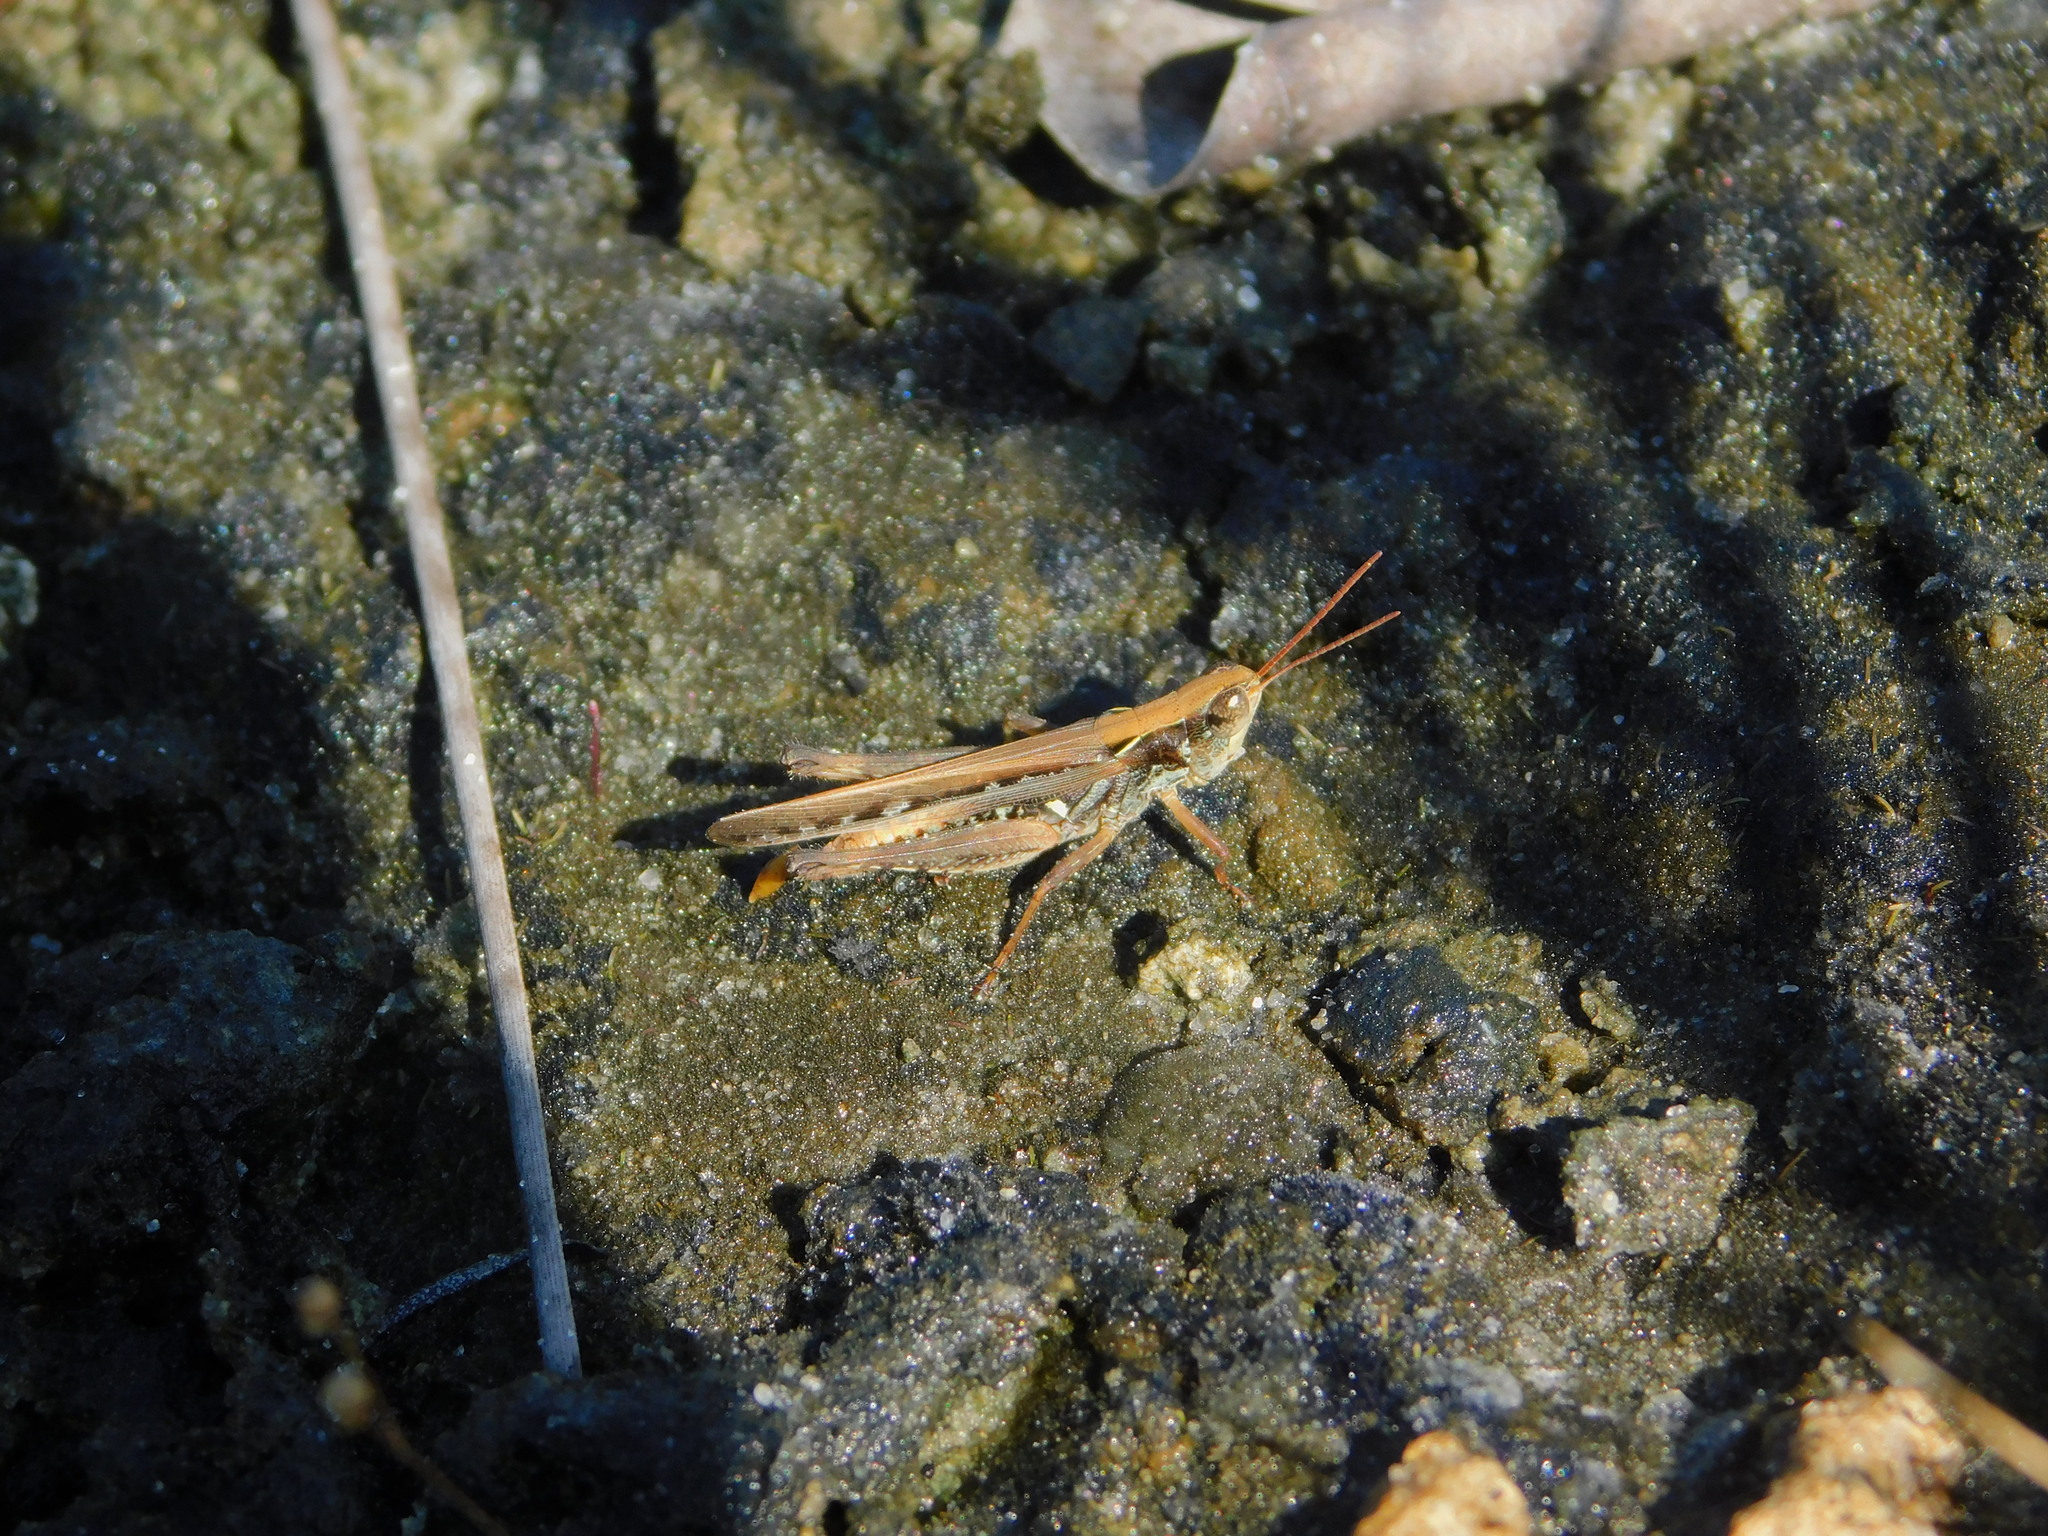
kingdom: Animalia
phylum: Arthropoda
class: Insecta
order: Orthoptera
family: Acrididae
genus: Orphulella
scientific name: Orphulella pelidna
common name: Spotted-wing grasshopper
